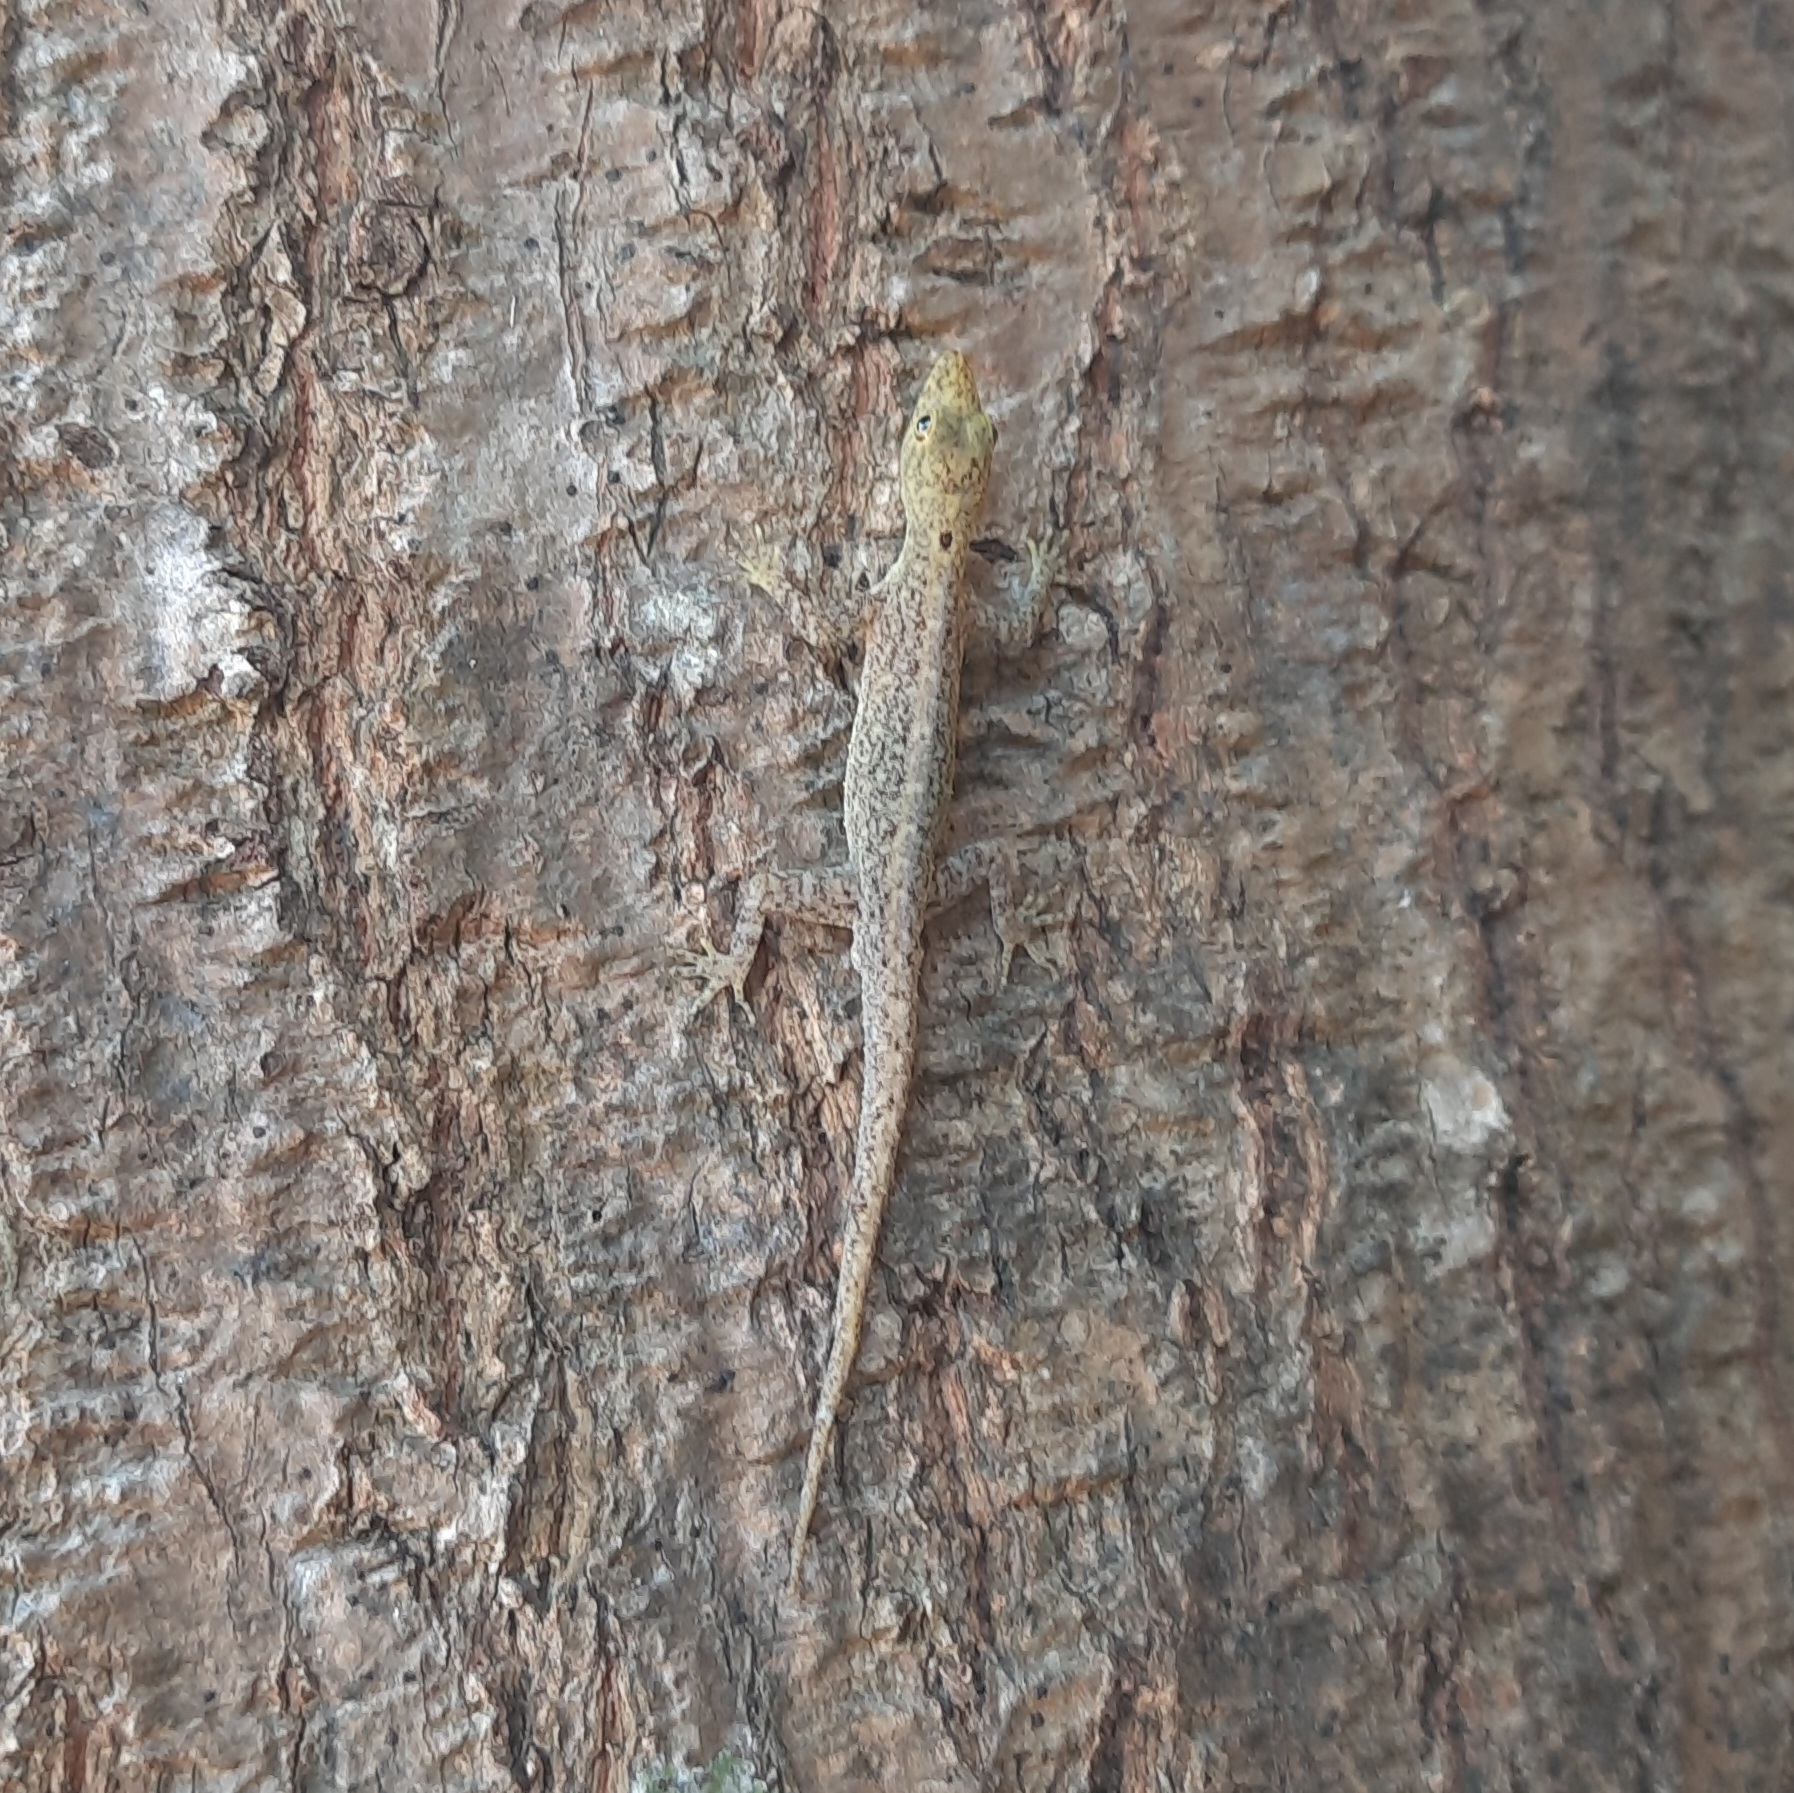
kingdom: Animalia
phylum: Chordata
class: Squamata
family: Gekkonidae
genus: Cnemaspis
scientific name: Cnemaspis littoralis
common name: Coastal day gecko
